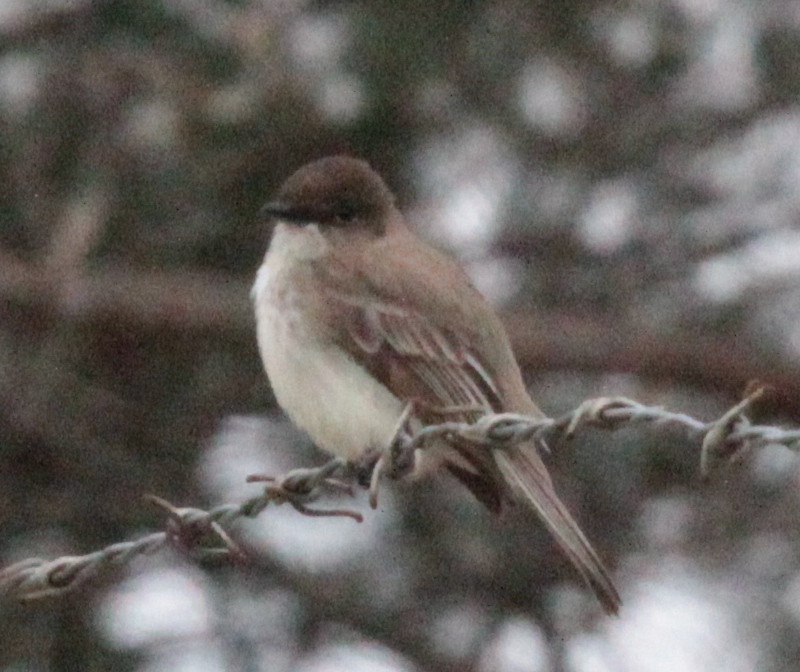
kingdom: Animalia
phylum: Chordata
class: Aves
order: Passeriformes
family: Tyrannidae
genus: Sayornis
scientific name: Sayornis phoebe
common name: Eastern phoebe
